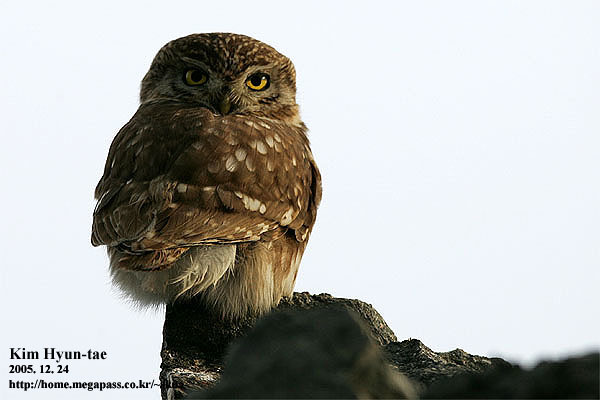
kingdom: Animalia
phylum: Chordata
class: Aves
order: Strigiformes
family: Strigidae
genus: Athene
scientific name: Athene noctua
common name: Little owl
